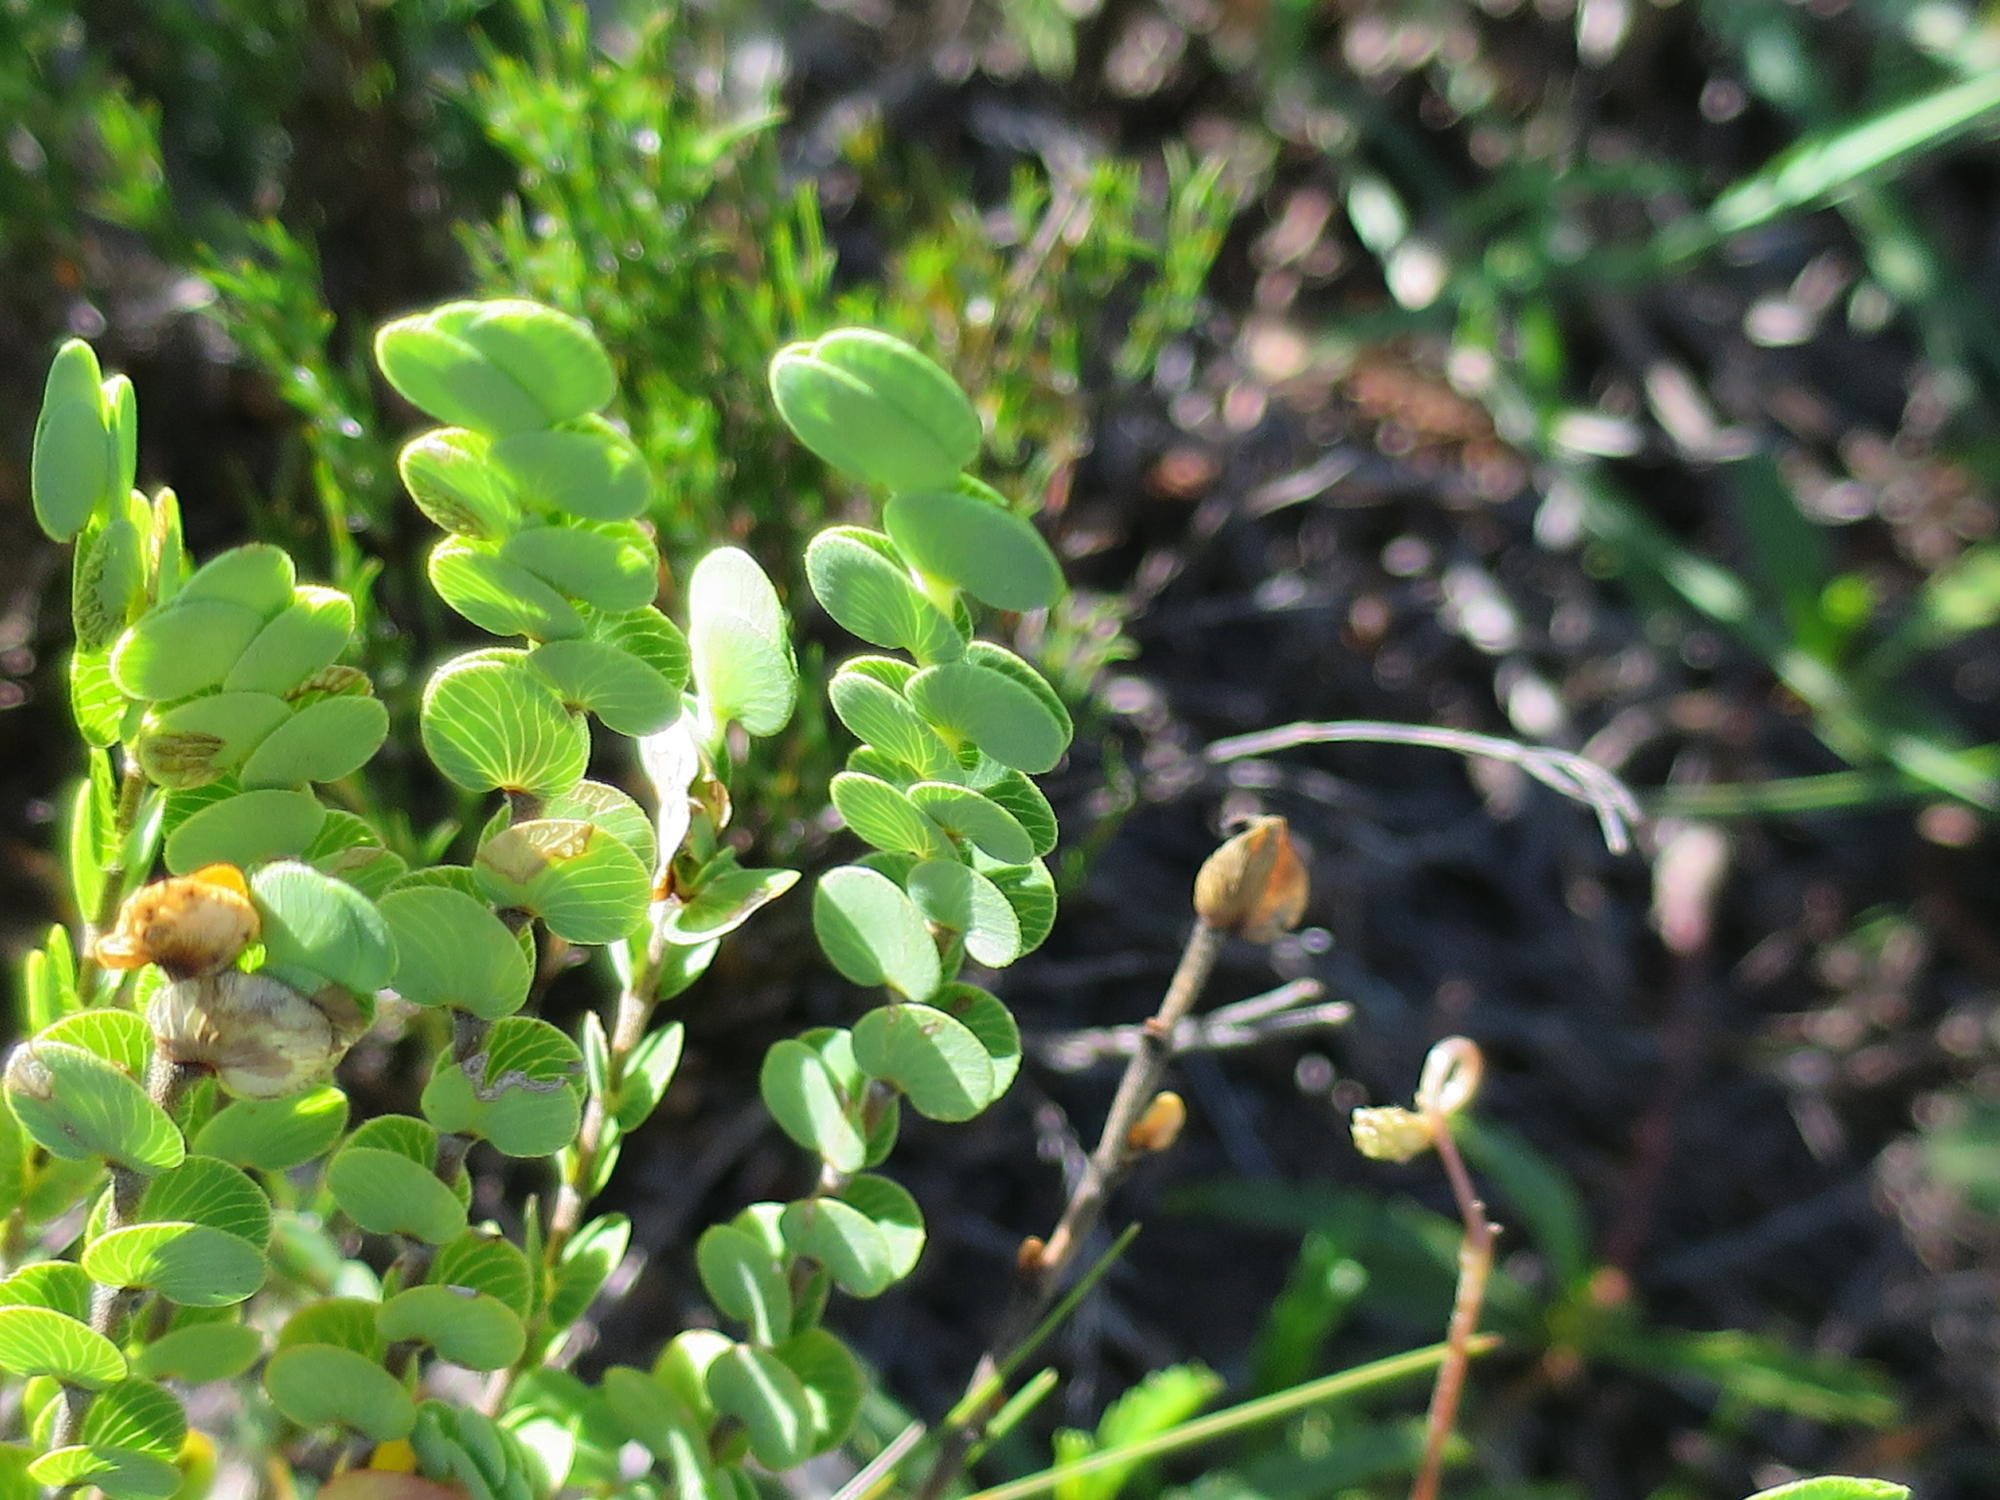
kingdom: Plantae
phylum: Tracheophyta
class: Magnoliopsida
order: Rosales
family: Rosaceae
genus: Cliffortia
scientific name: Cliffortia pulchella
